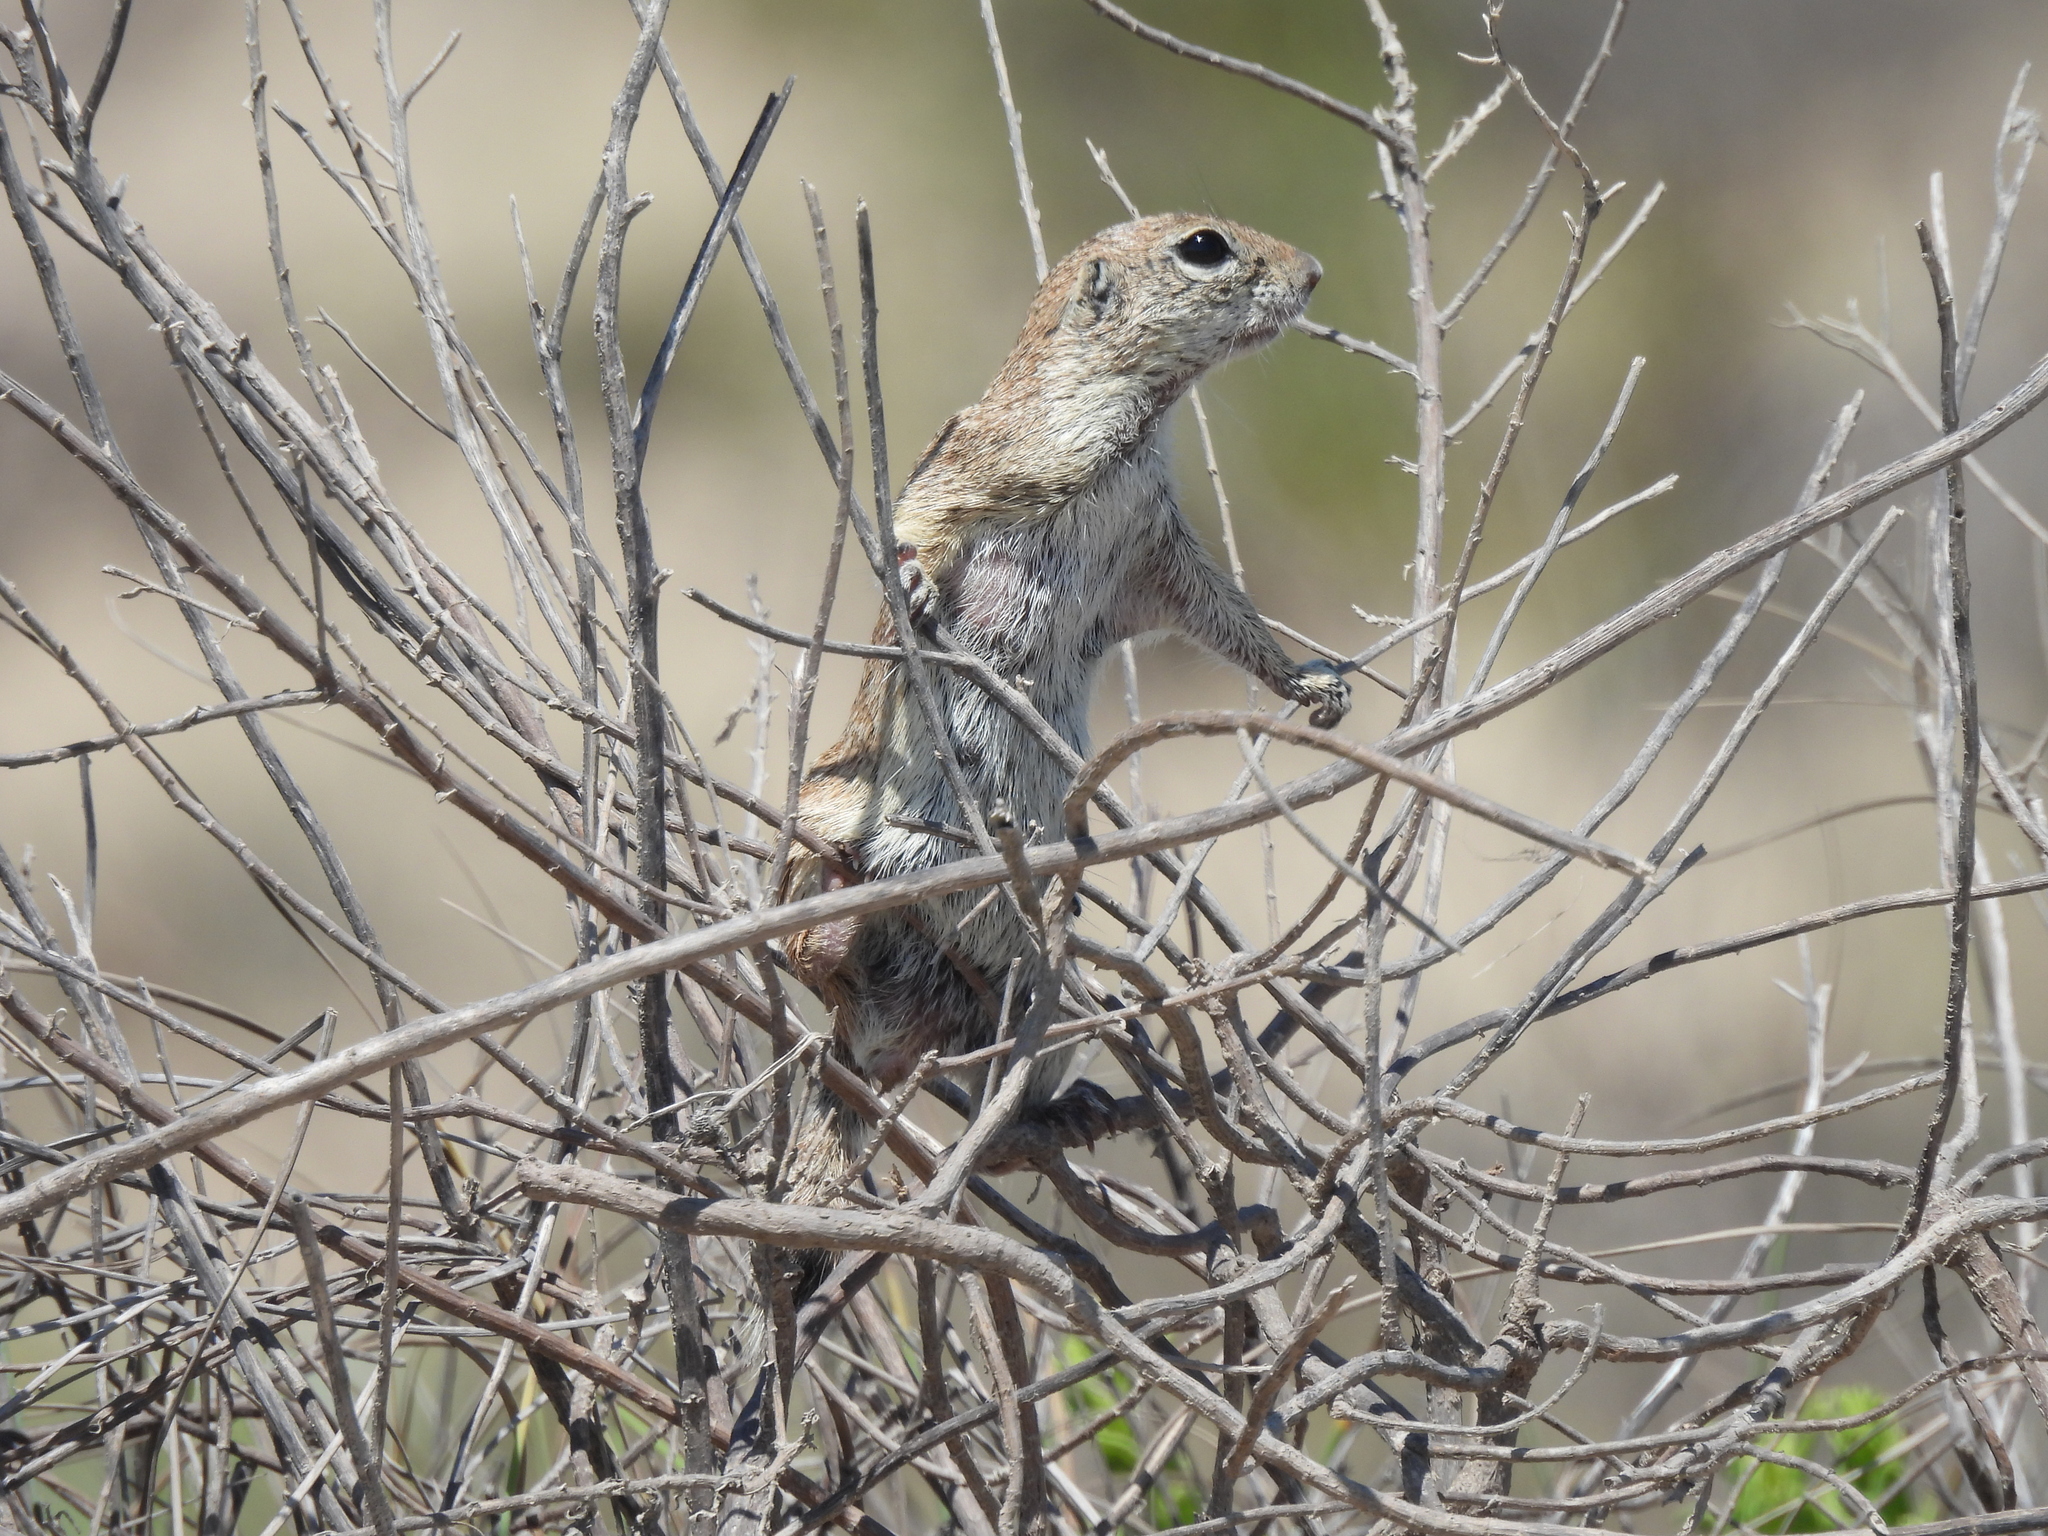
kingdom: Animalia
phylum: Chordata
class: Mammalia
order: Rodentia
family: Sciuridae
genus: Xerospermophilus
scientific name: Xerospermophilus spilosoma
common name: Spotted ground squirrel
